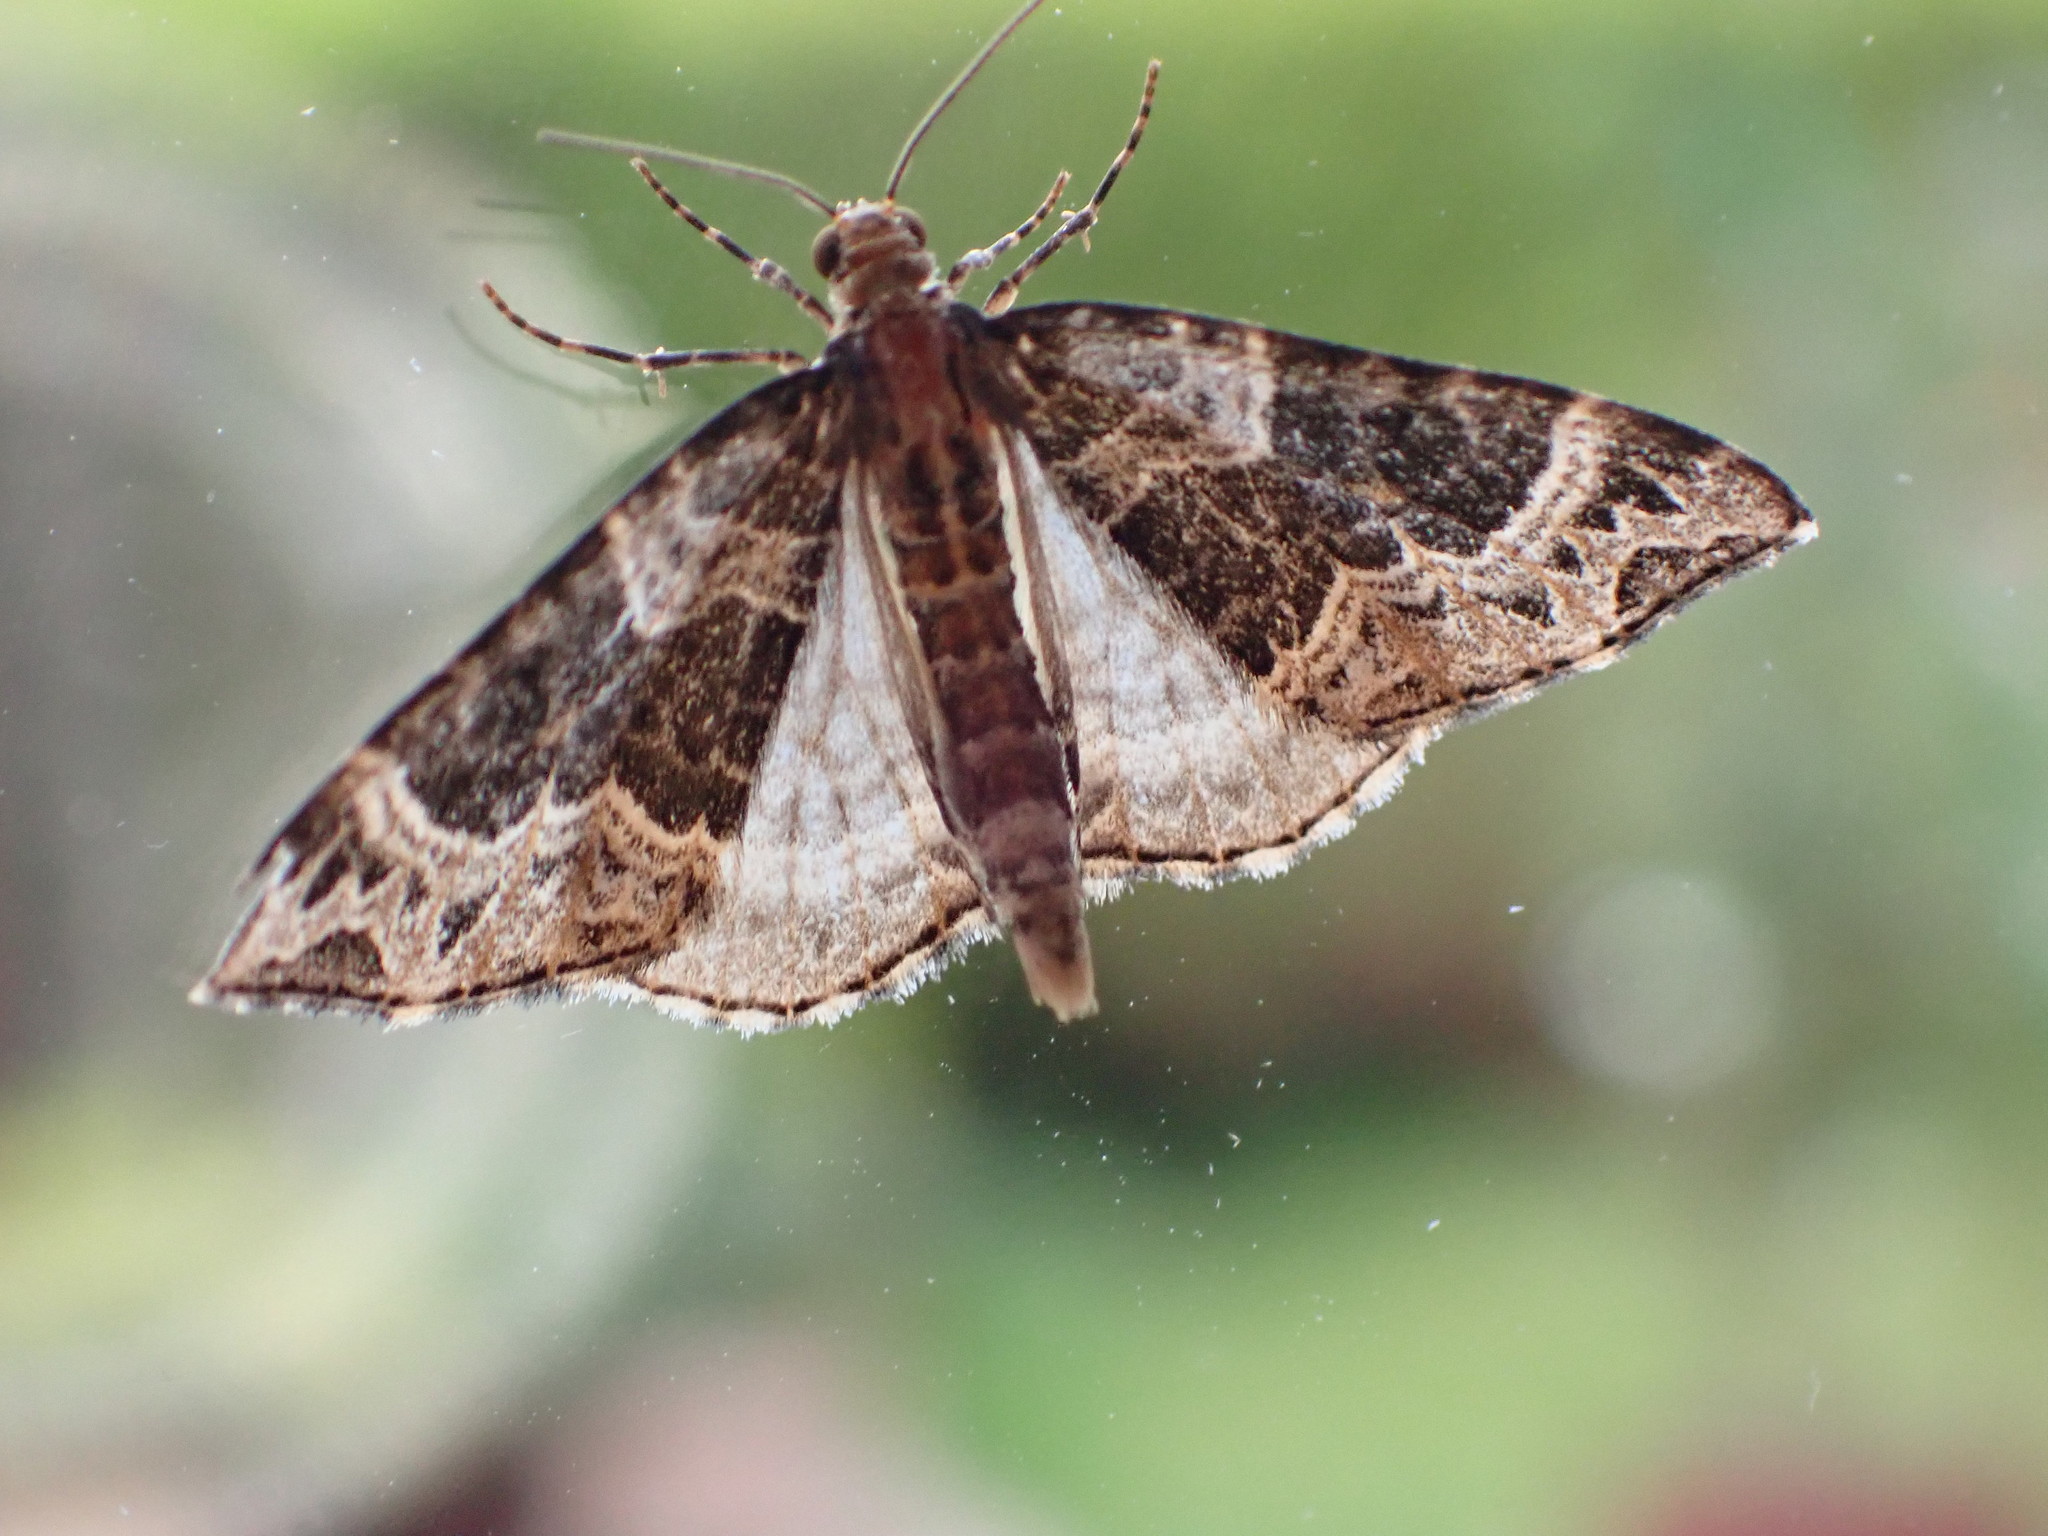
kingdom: Animalia
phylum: Arthropoda
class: Insecta
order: Lepidoptera
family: Geometridae
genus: Ecliptopera
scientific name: Ecliptopera silaceata
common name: Small phoenix
